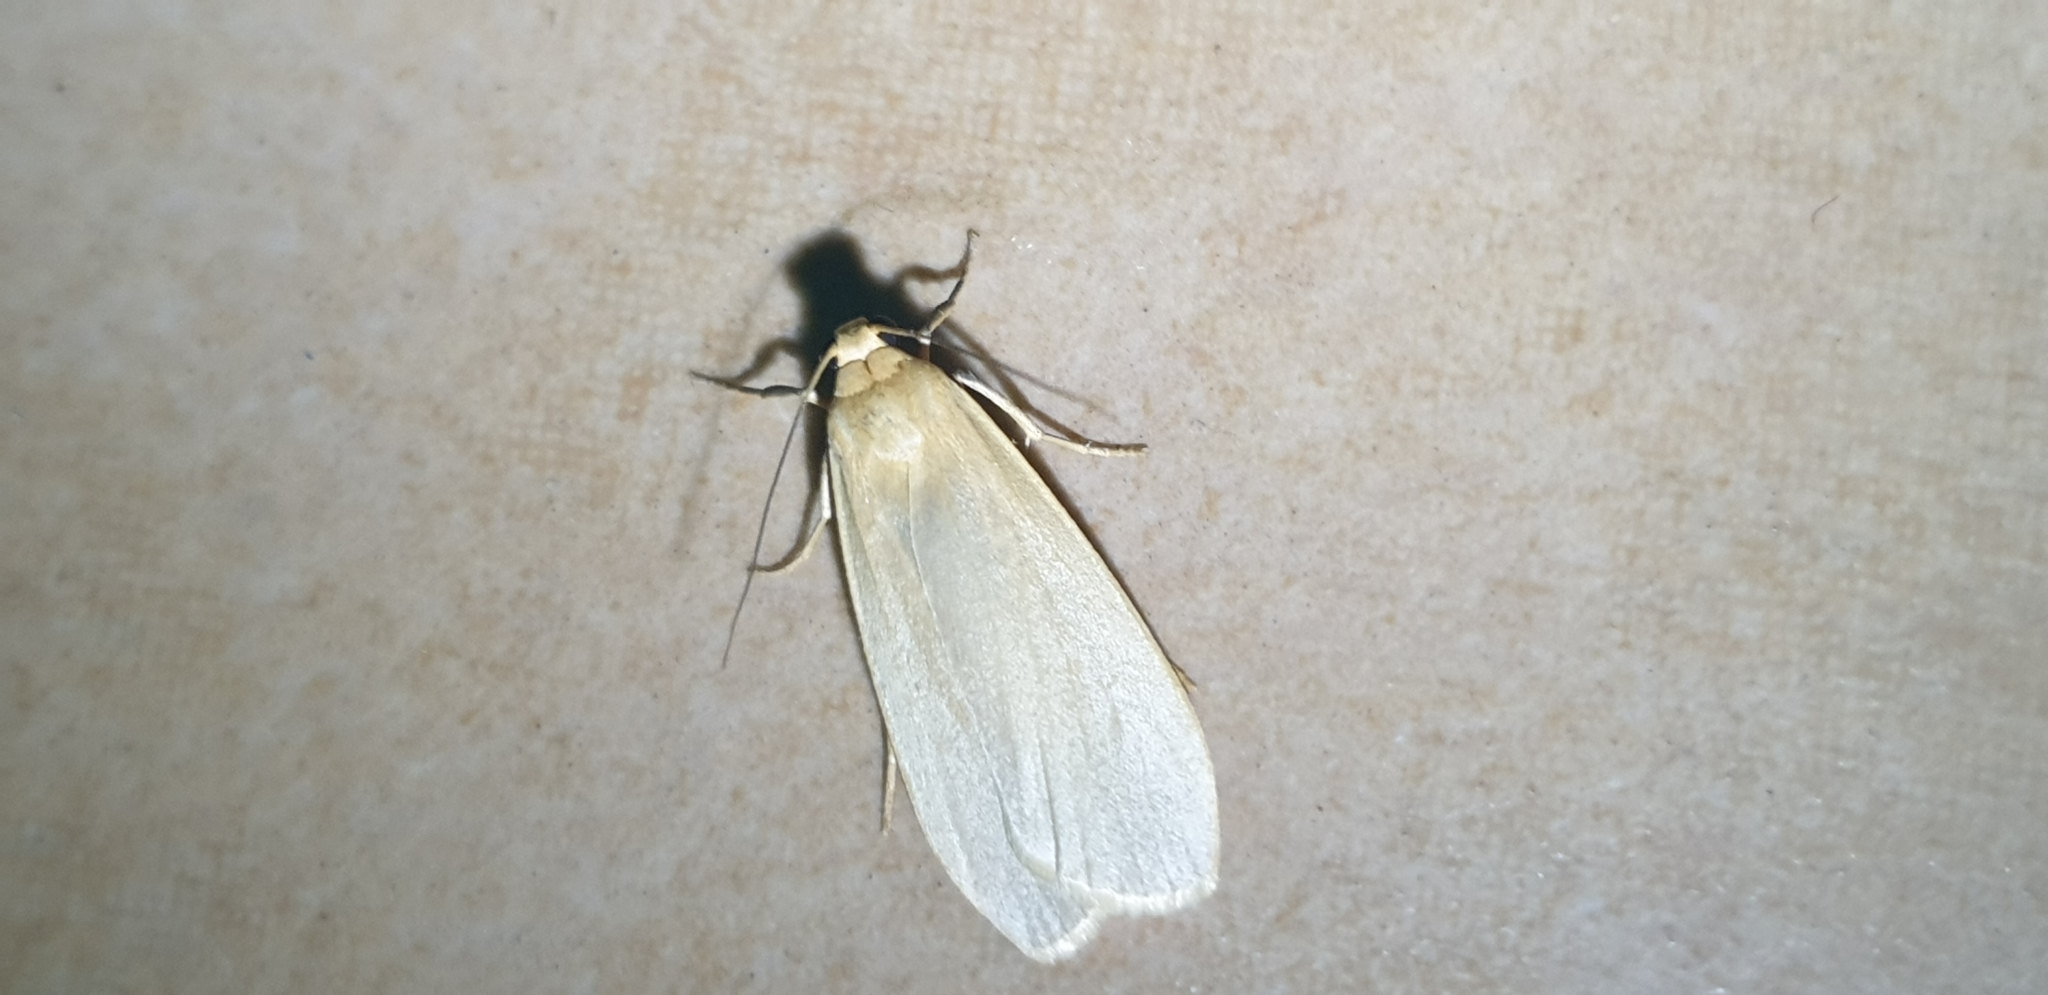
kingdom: Animalia
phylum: Arthropoda
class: Insecta
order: Lepidoptera
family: Erebidae
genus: Hesychopa
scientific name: Hesychopa chionora
